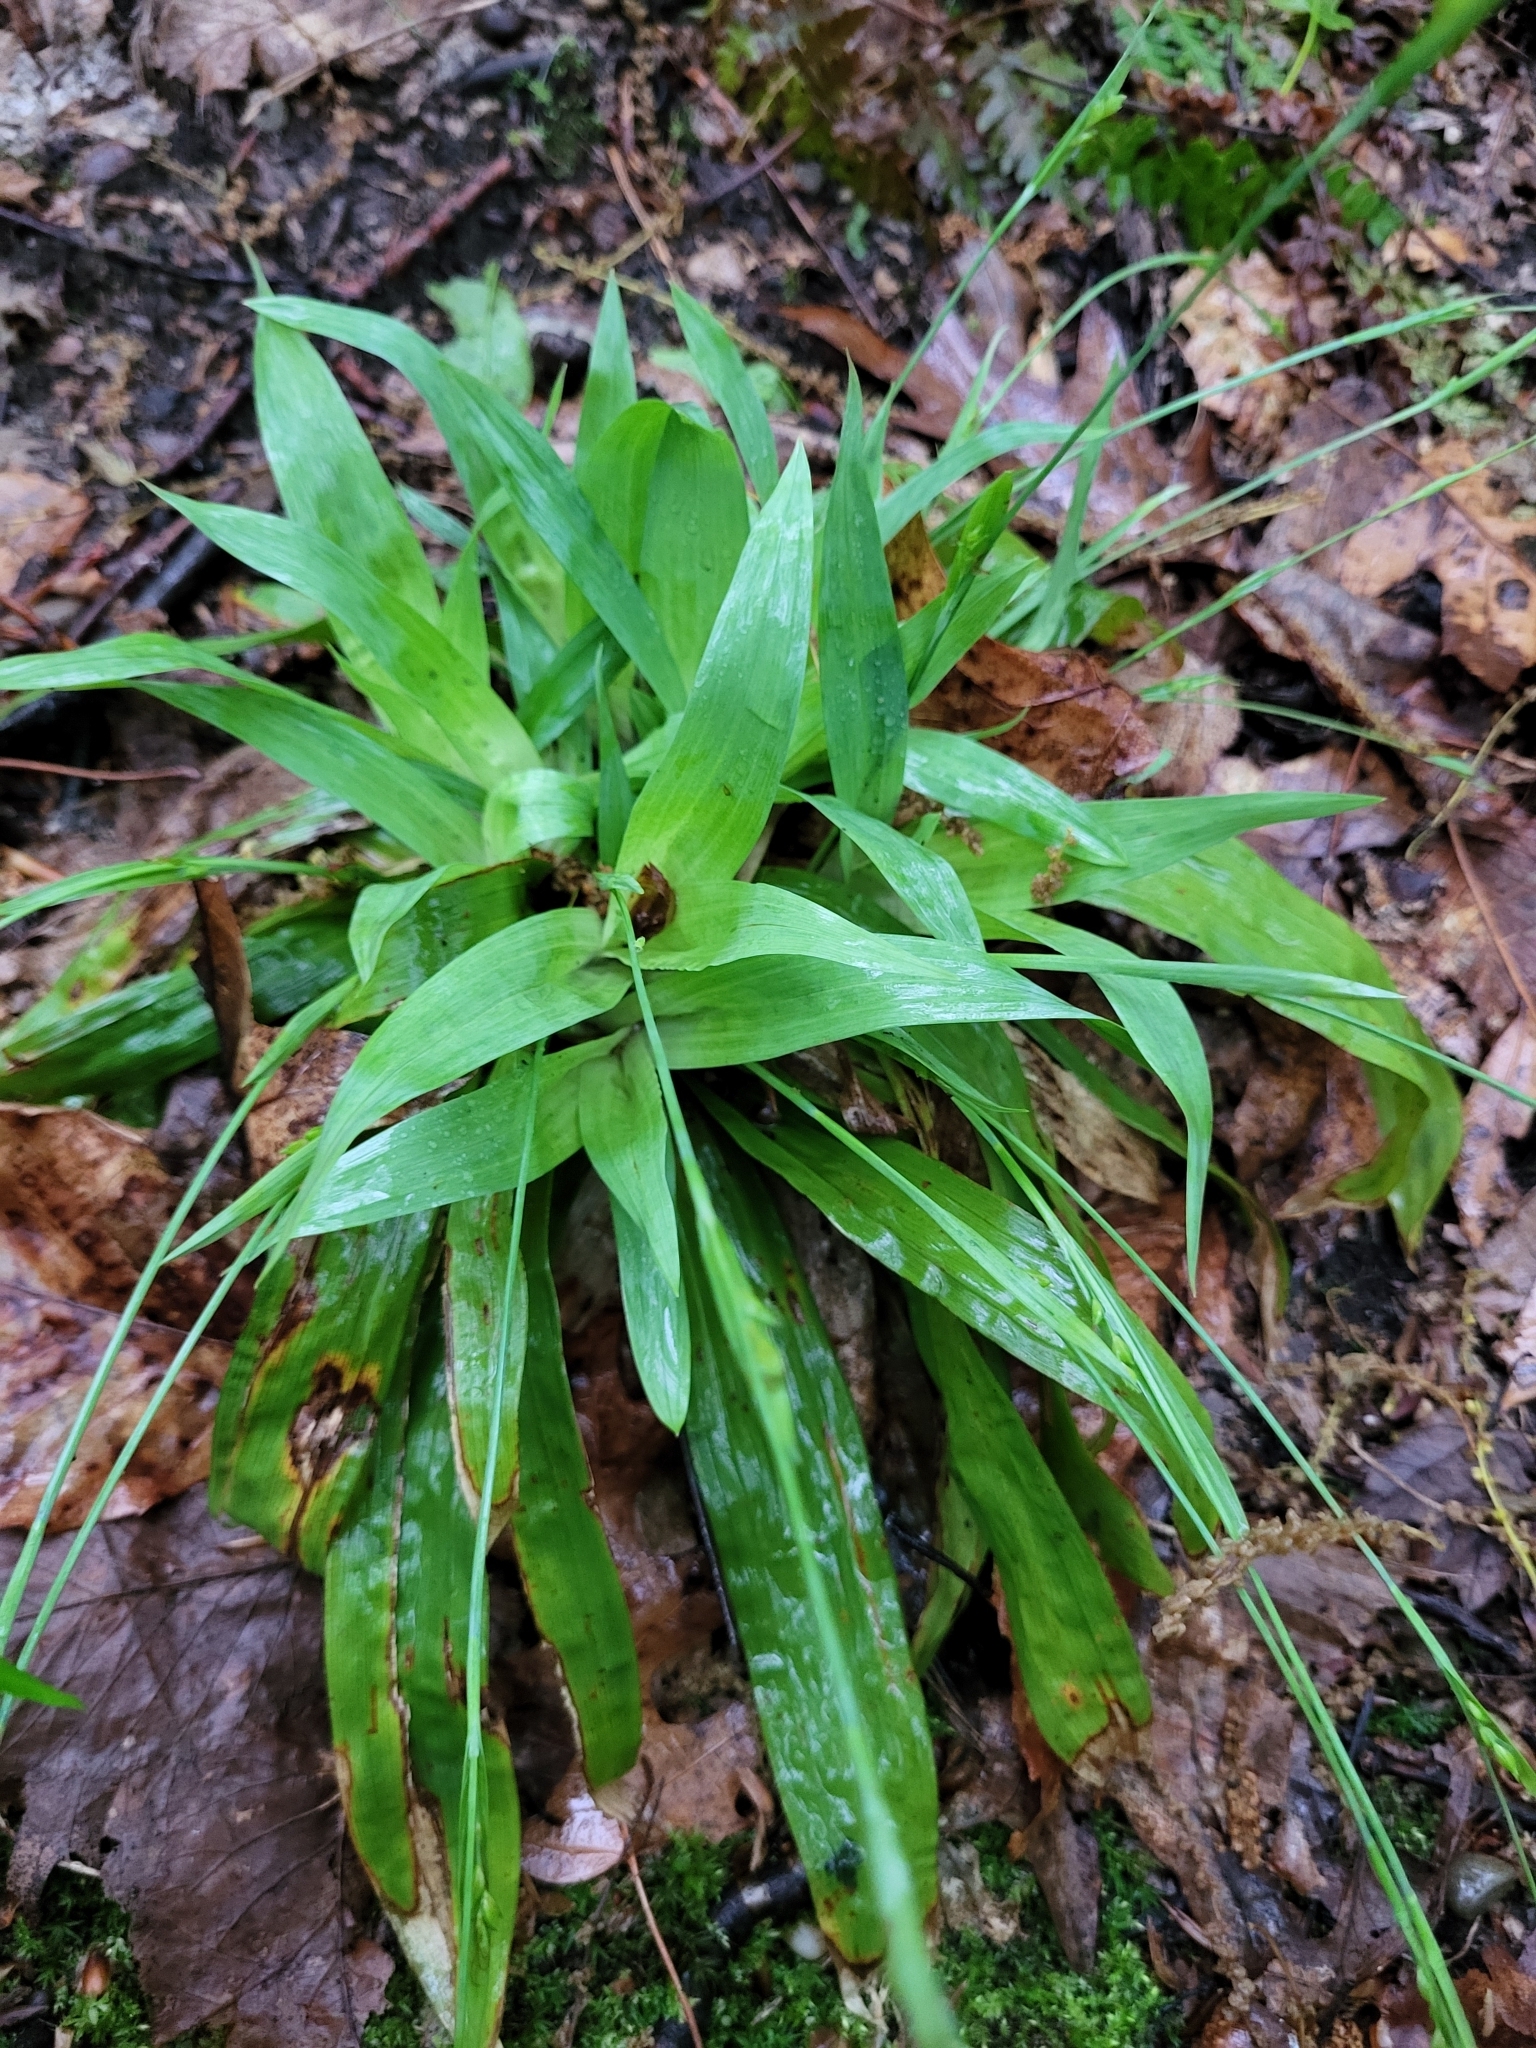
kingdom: Plantae
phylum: Tracheophyta
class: Liliopsida
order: Poales
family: Cyperaceae
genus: Carex
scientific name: Carex platyphylla
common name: Broad-leaved sedge
